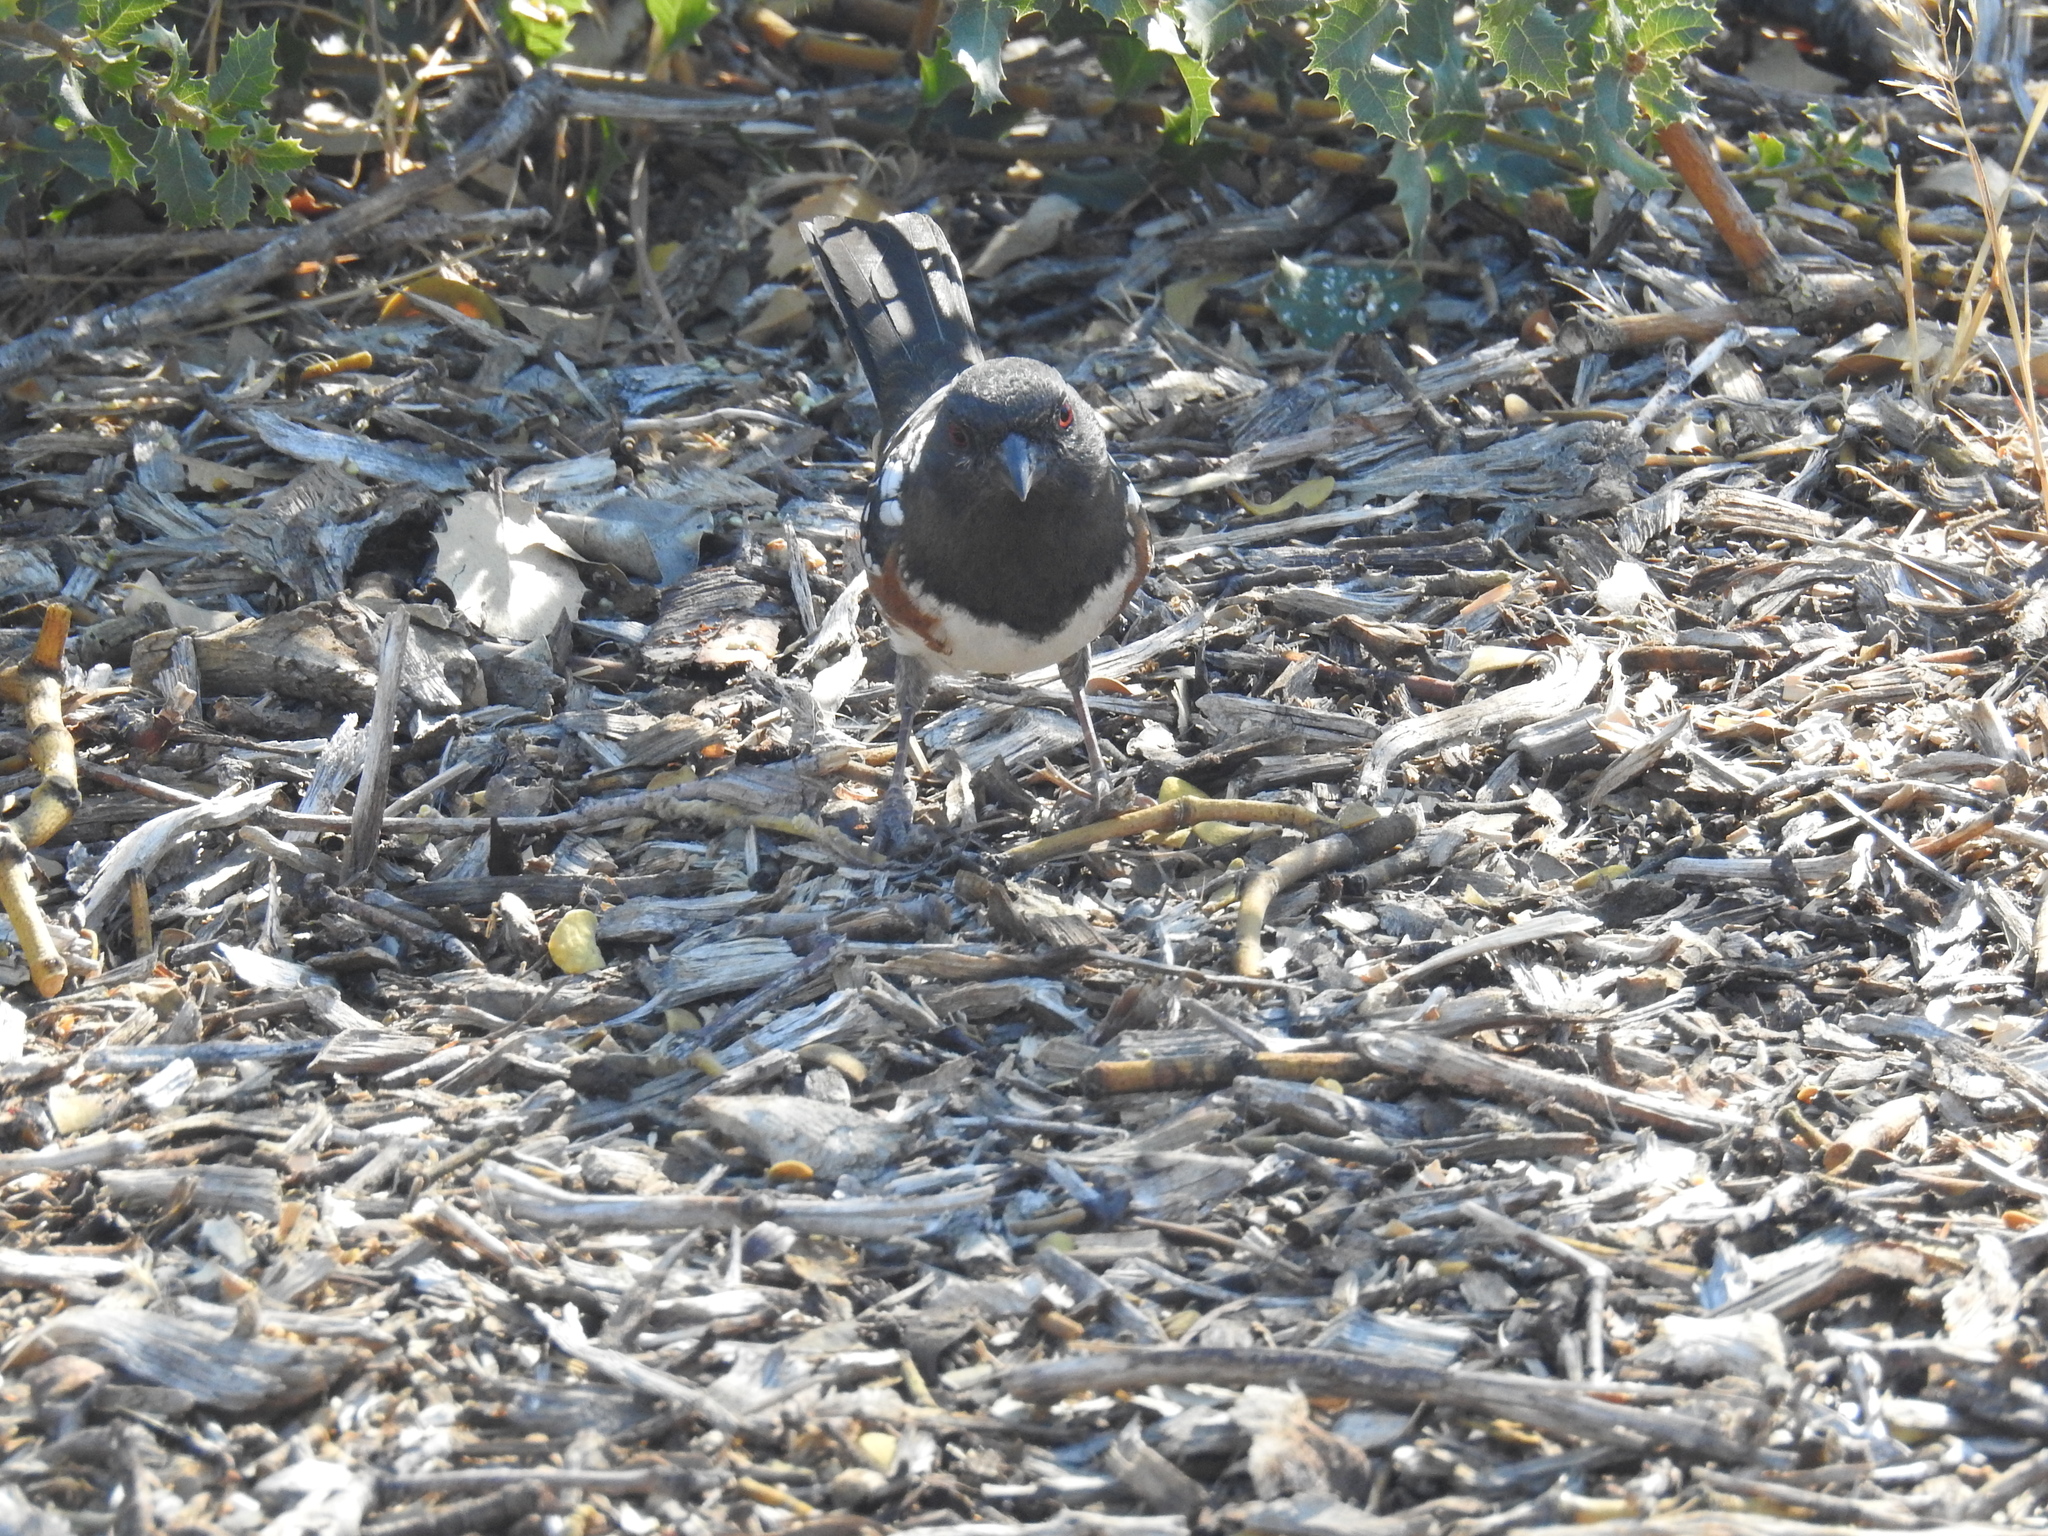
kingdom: Animalia
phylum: Chordata
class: Aves
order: Passeriformes
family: Passerellidae
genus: Pipilo
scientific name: Pipilo maculatus
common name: Spotted towhee
